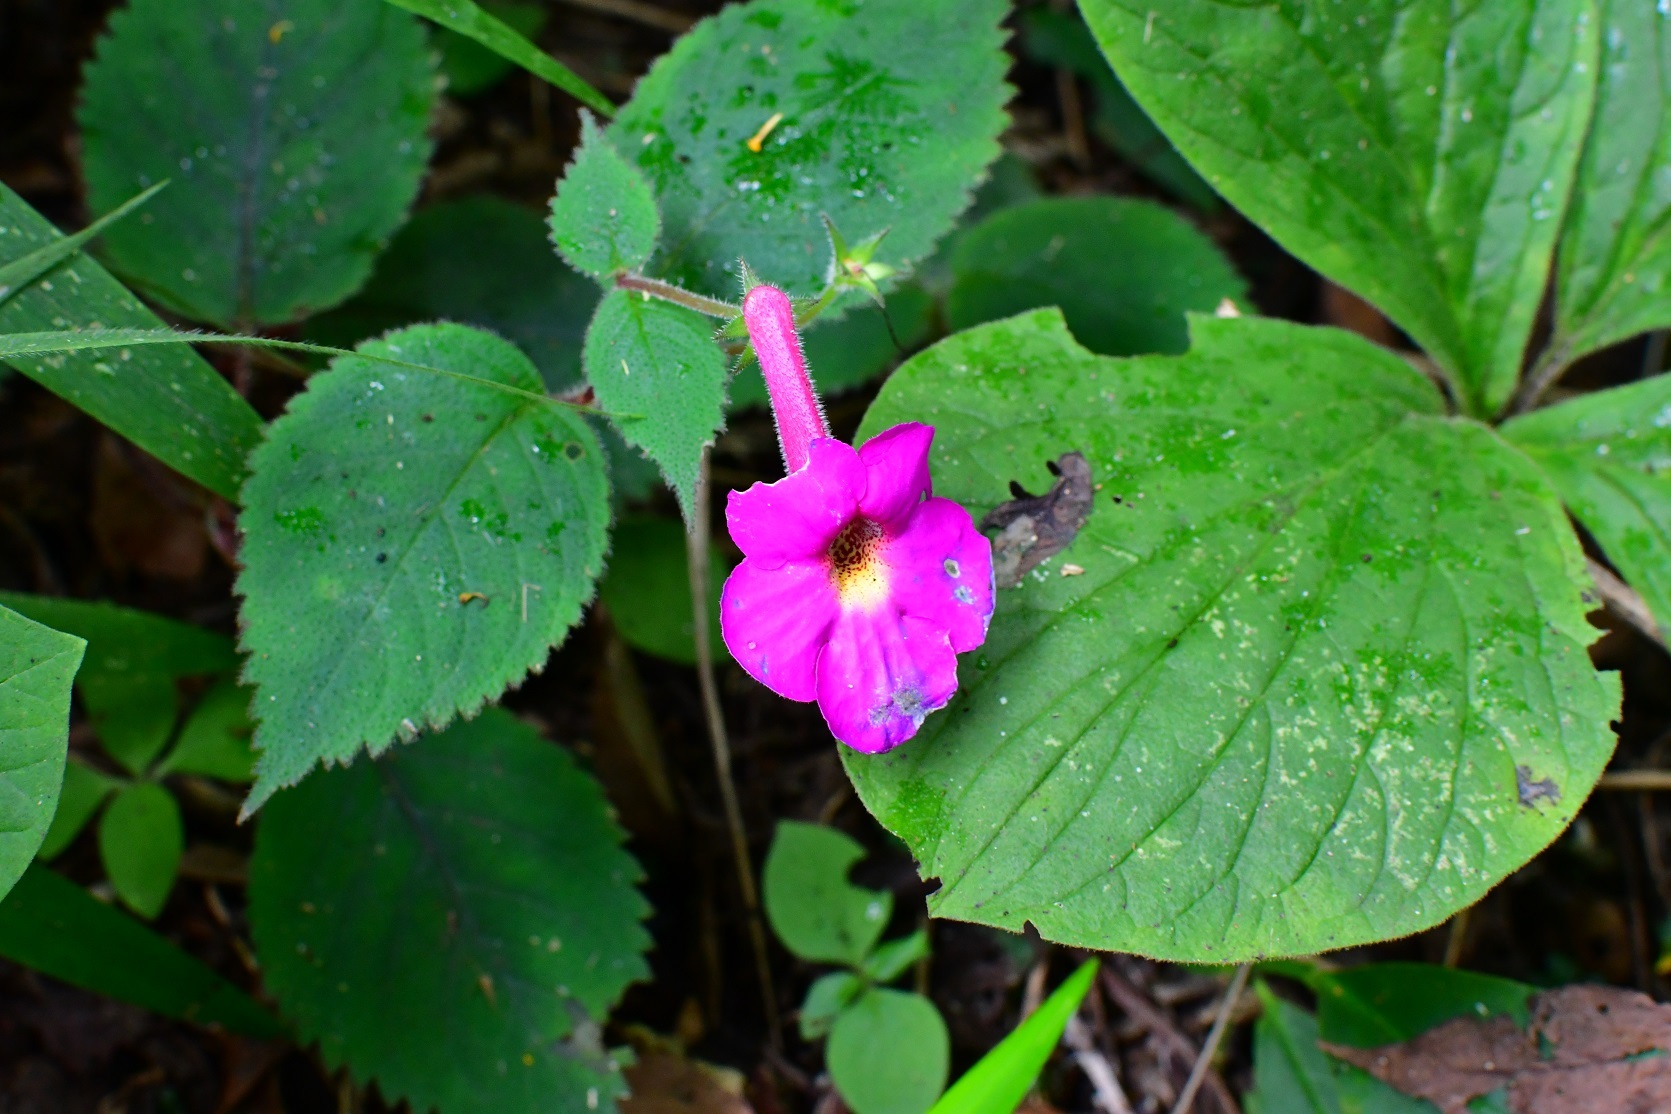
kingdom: Plantae
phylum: Tracheophyta
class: Magnoliopsida
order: Lamiales
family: Gesneriaceae
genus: Achimenes
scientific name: Achimenes grandiflora
